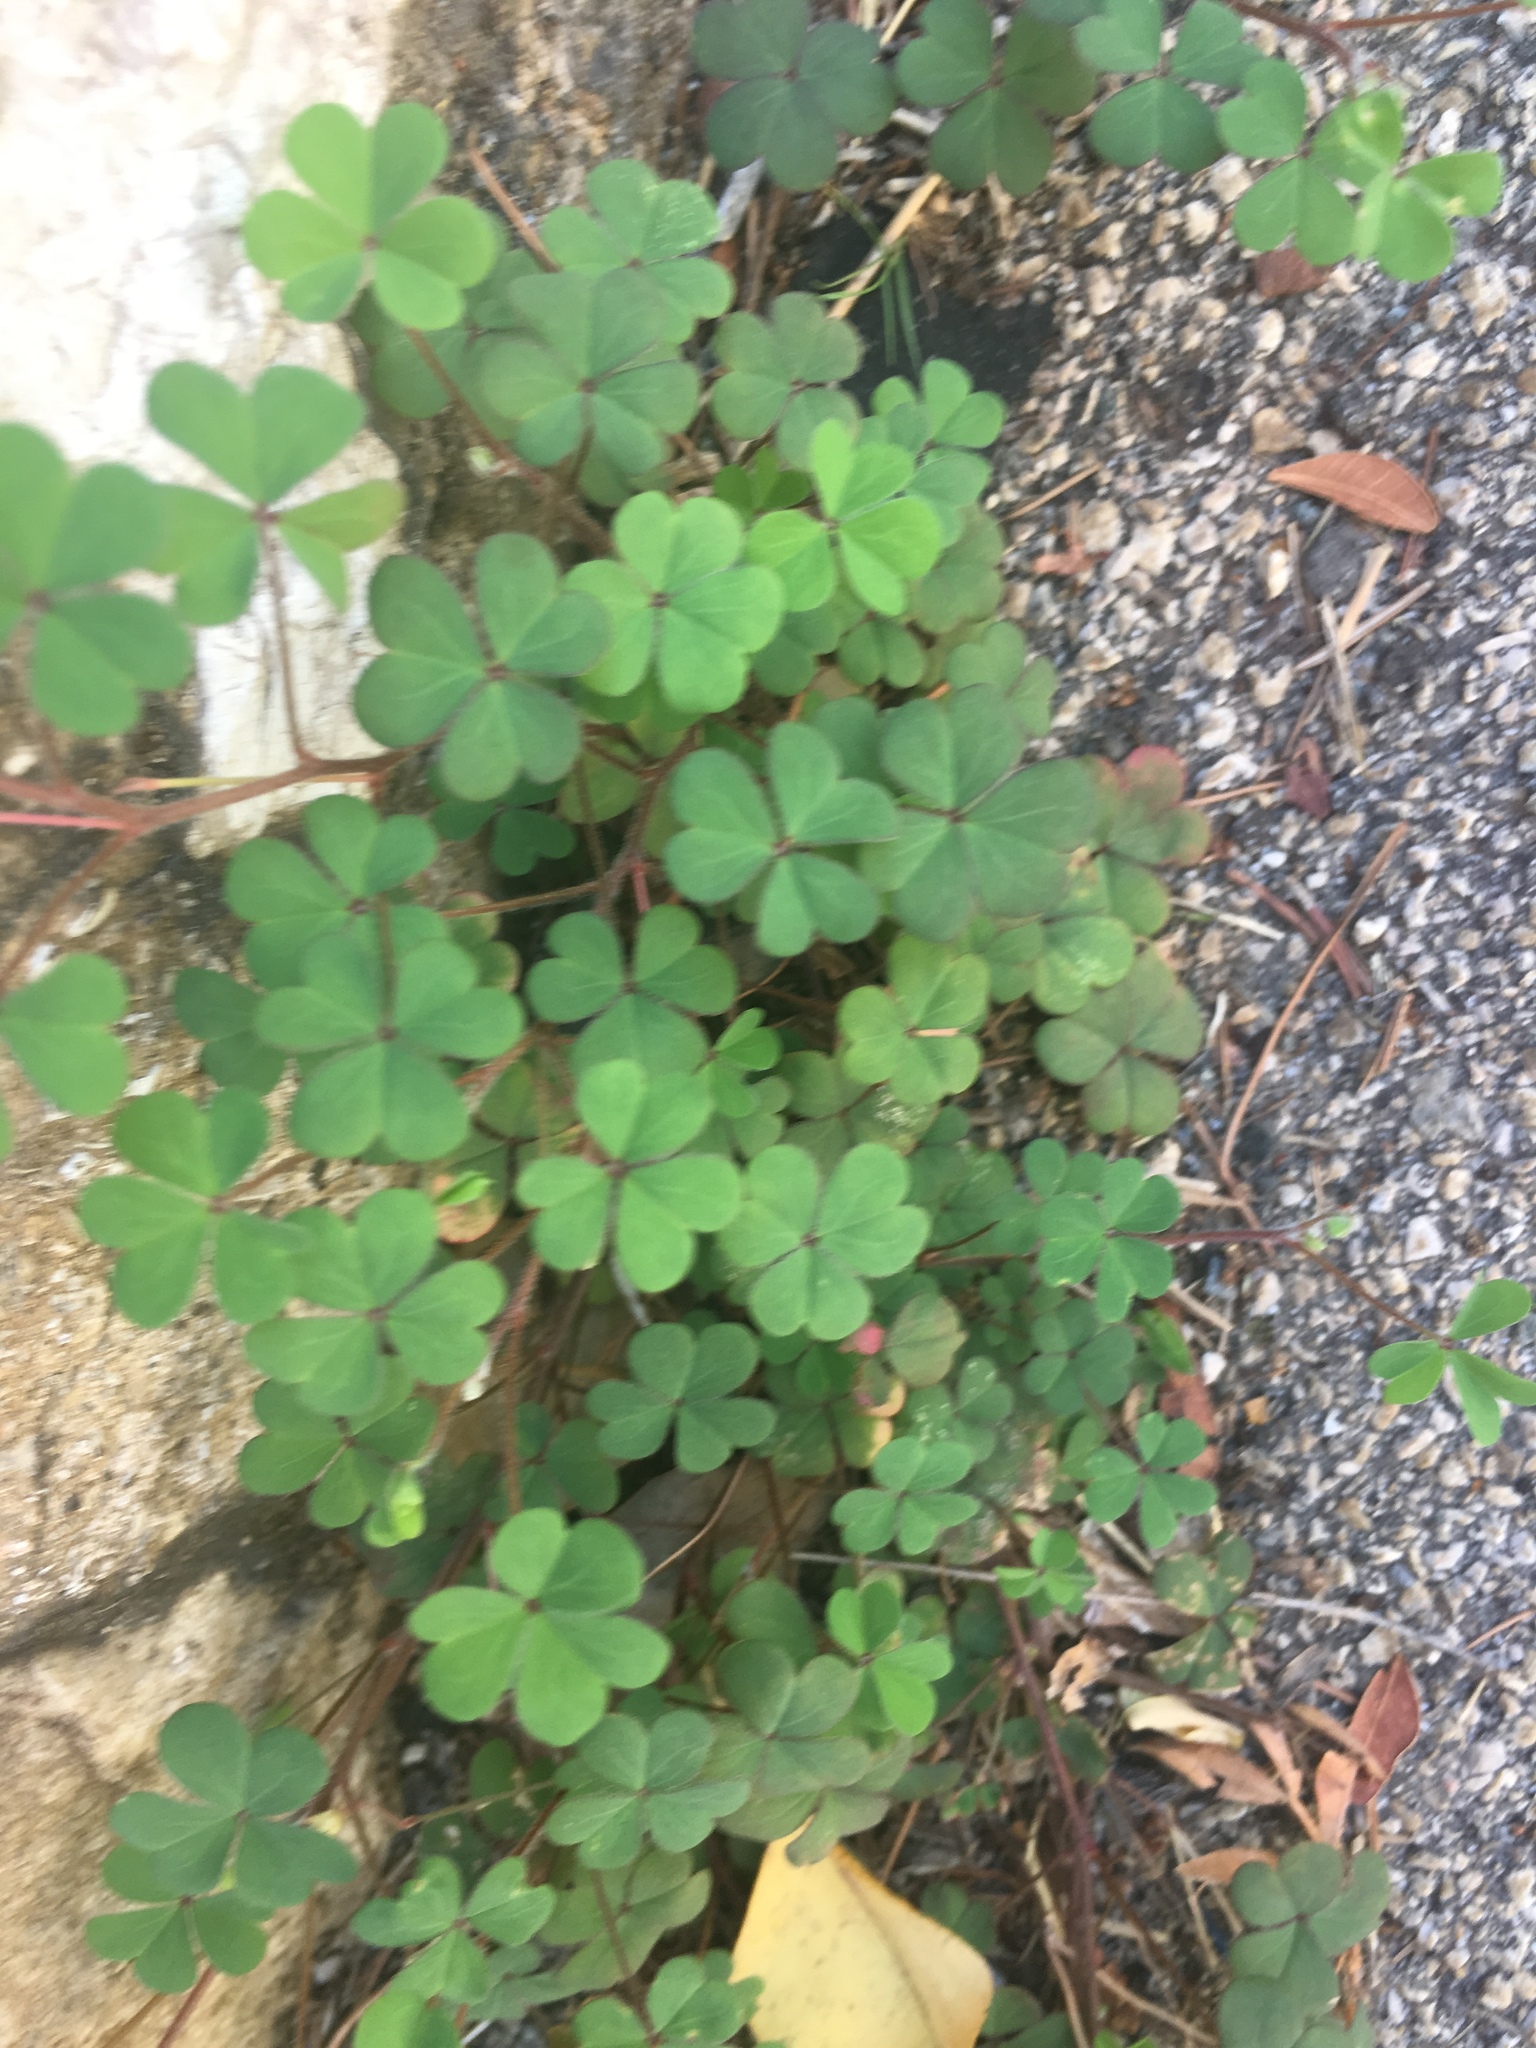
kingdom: Plantae
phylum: Tracheophyta
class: Magnoliopsida
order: Oxalidales
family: Oxalidaceae
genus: Oxalis
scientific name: Oxalis corniculata
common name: Procumbent yellow-sorrel
